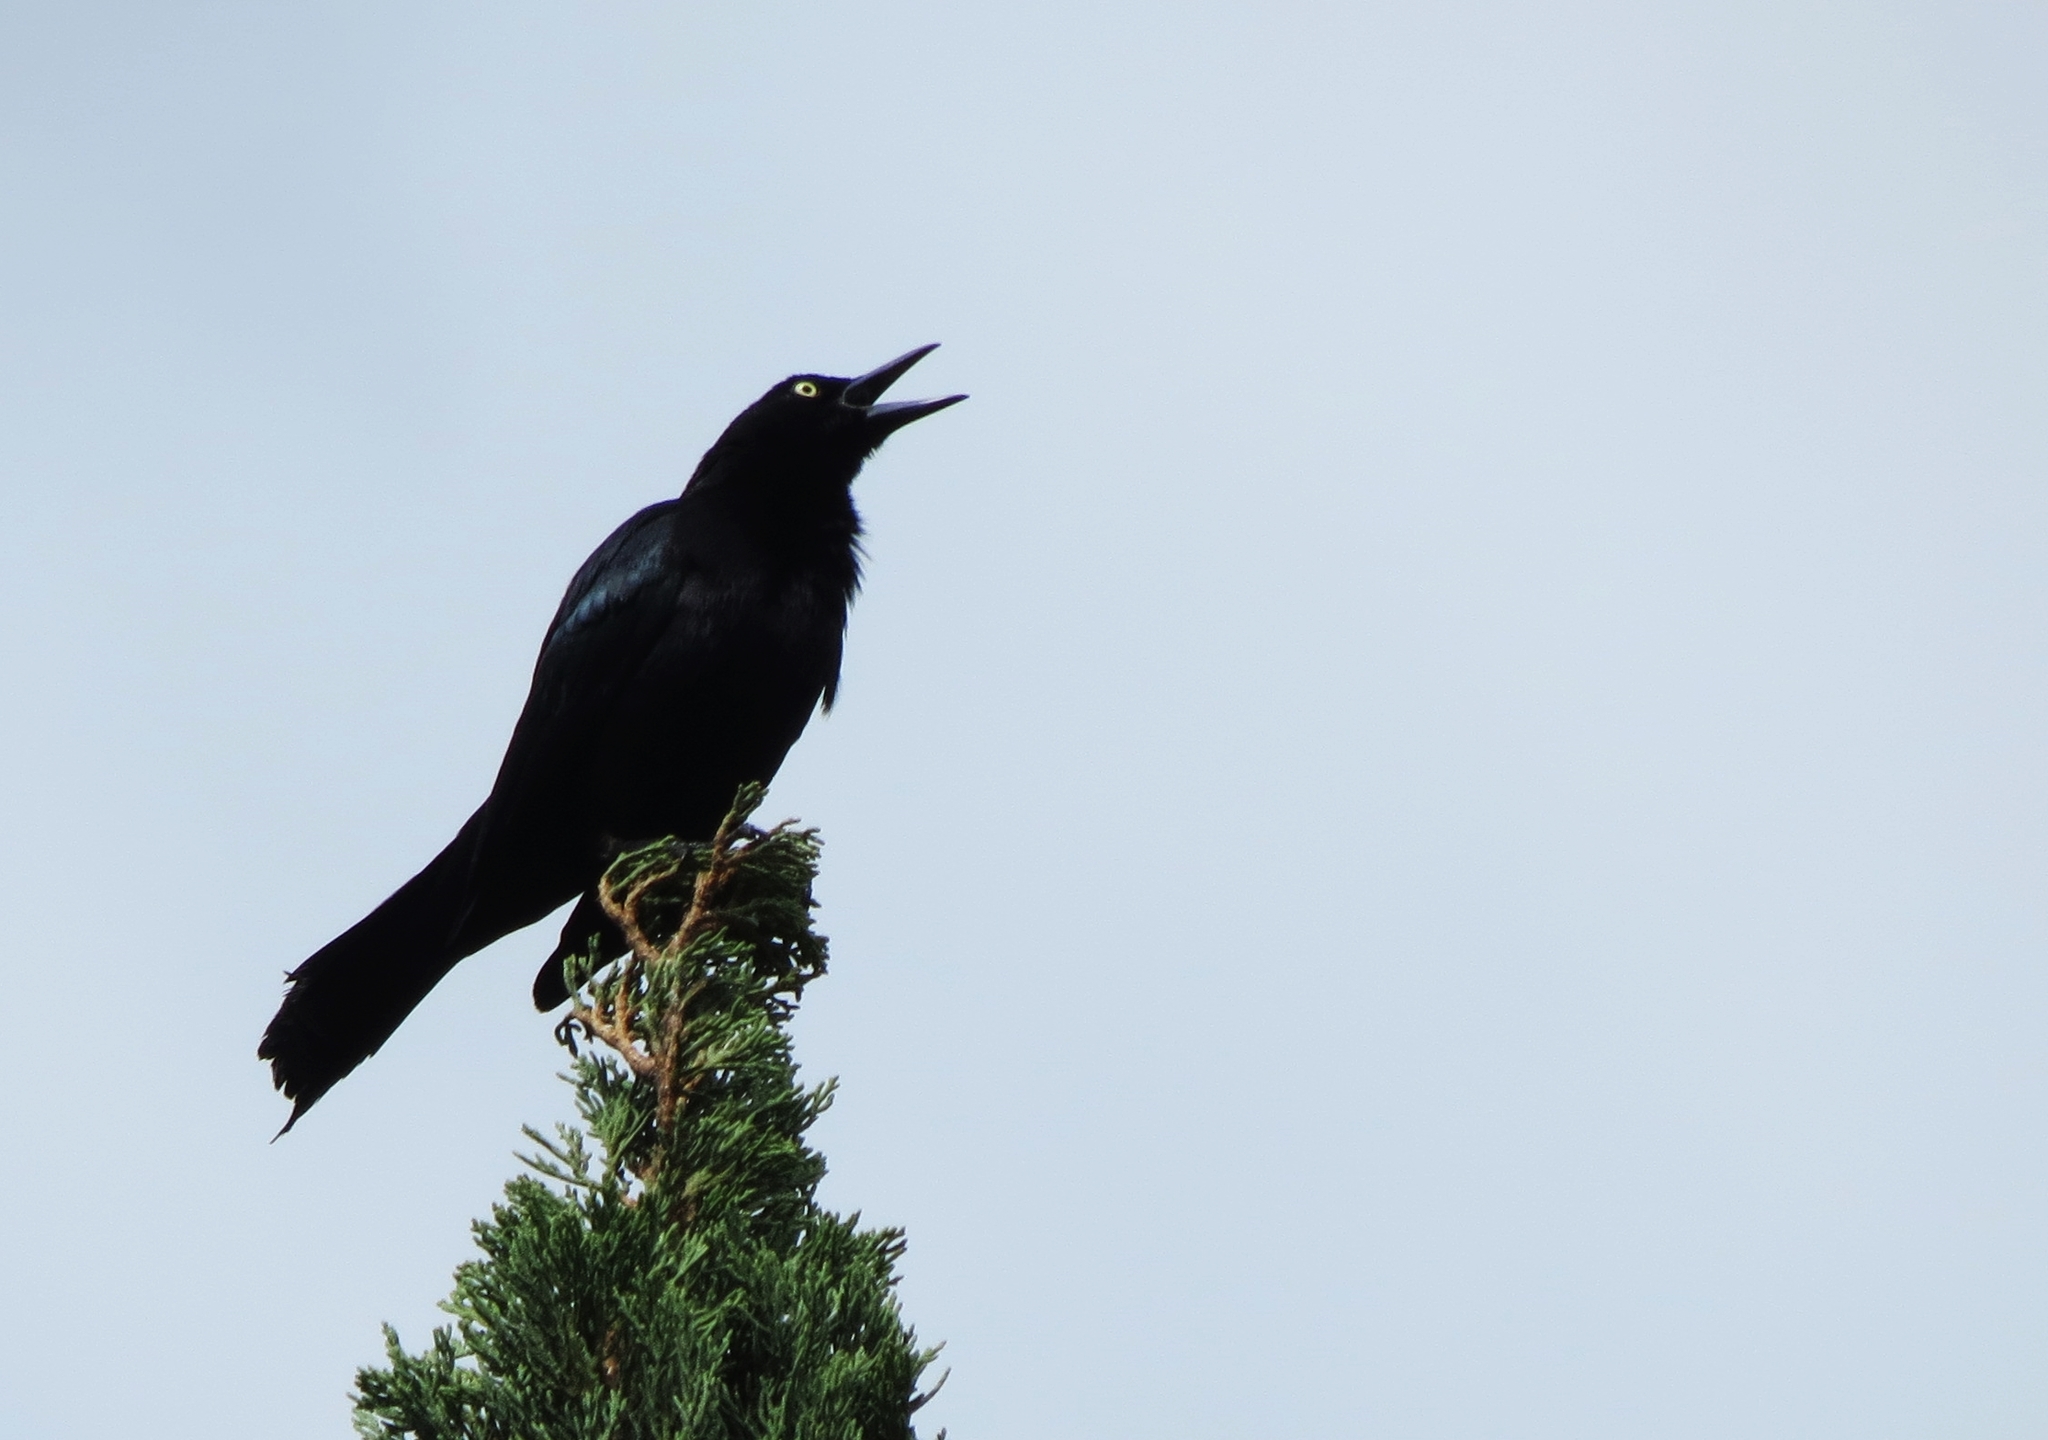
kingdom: Animalia
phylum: Chordata
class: Aves
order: Passeriformes
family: Icteridae
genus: Quiscalus
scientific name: Quiscalus lugubris
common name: Carib grackle
